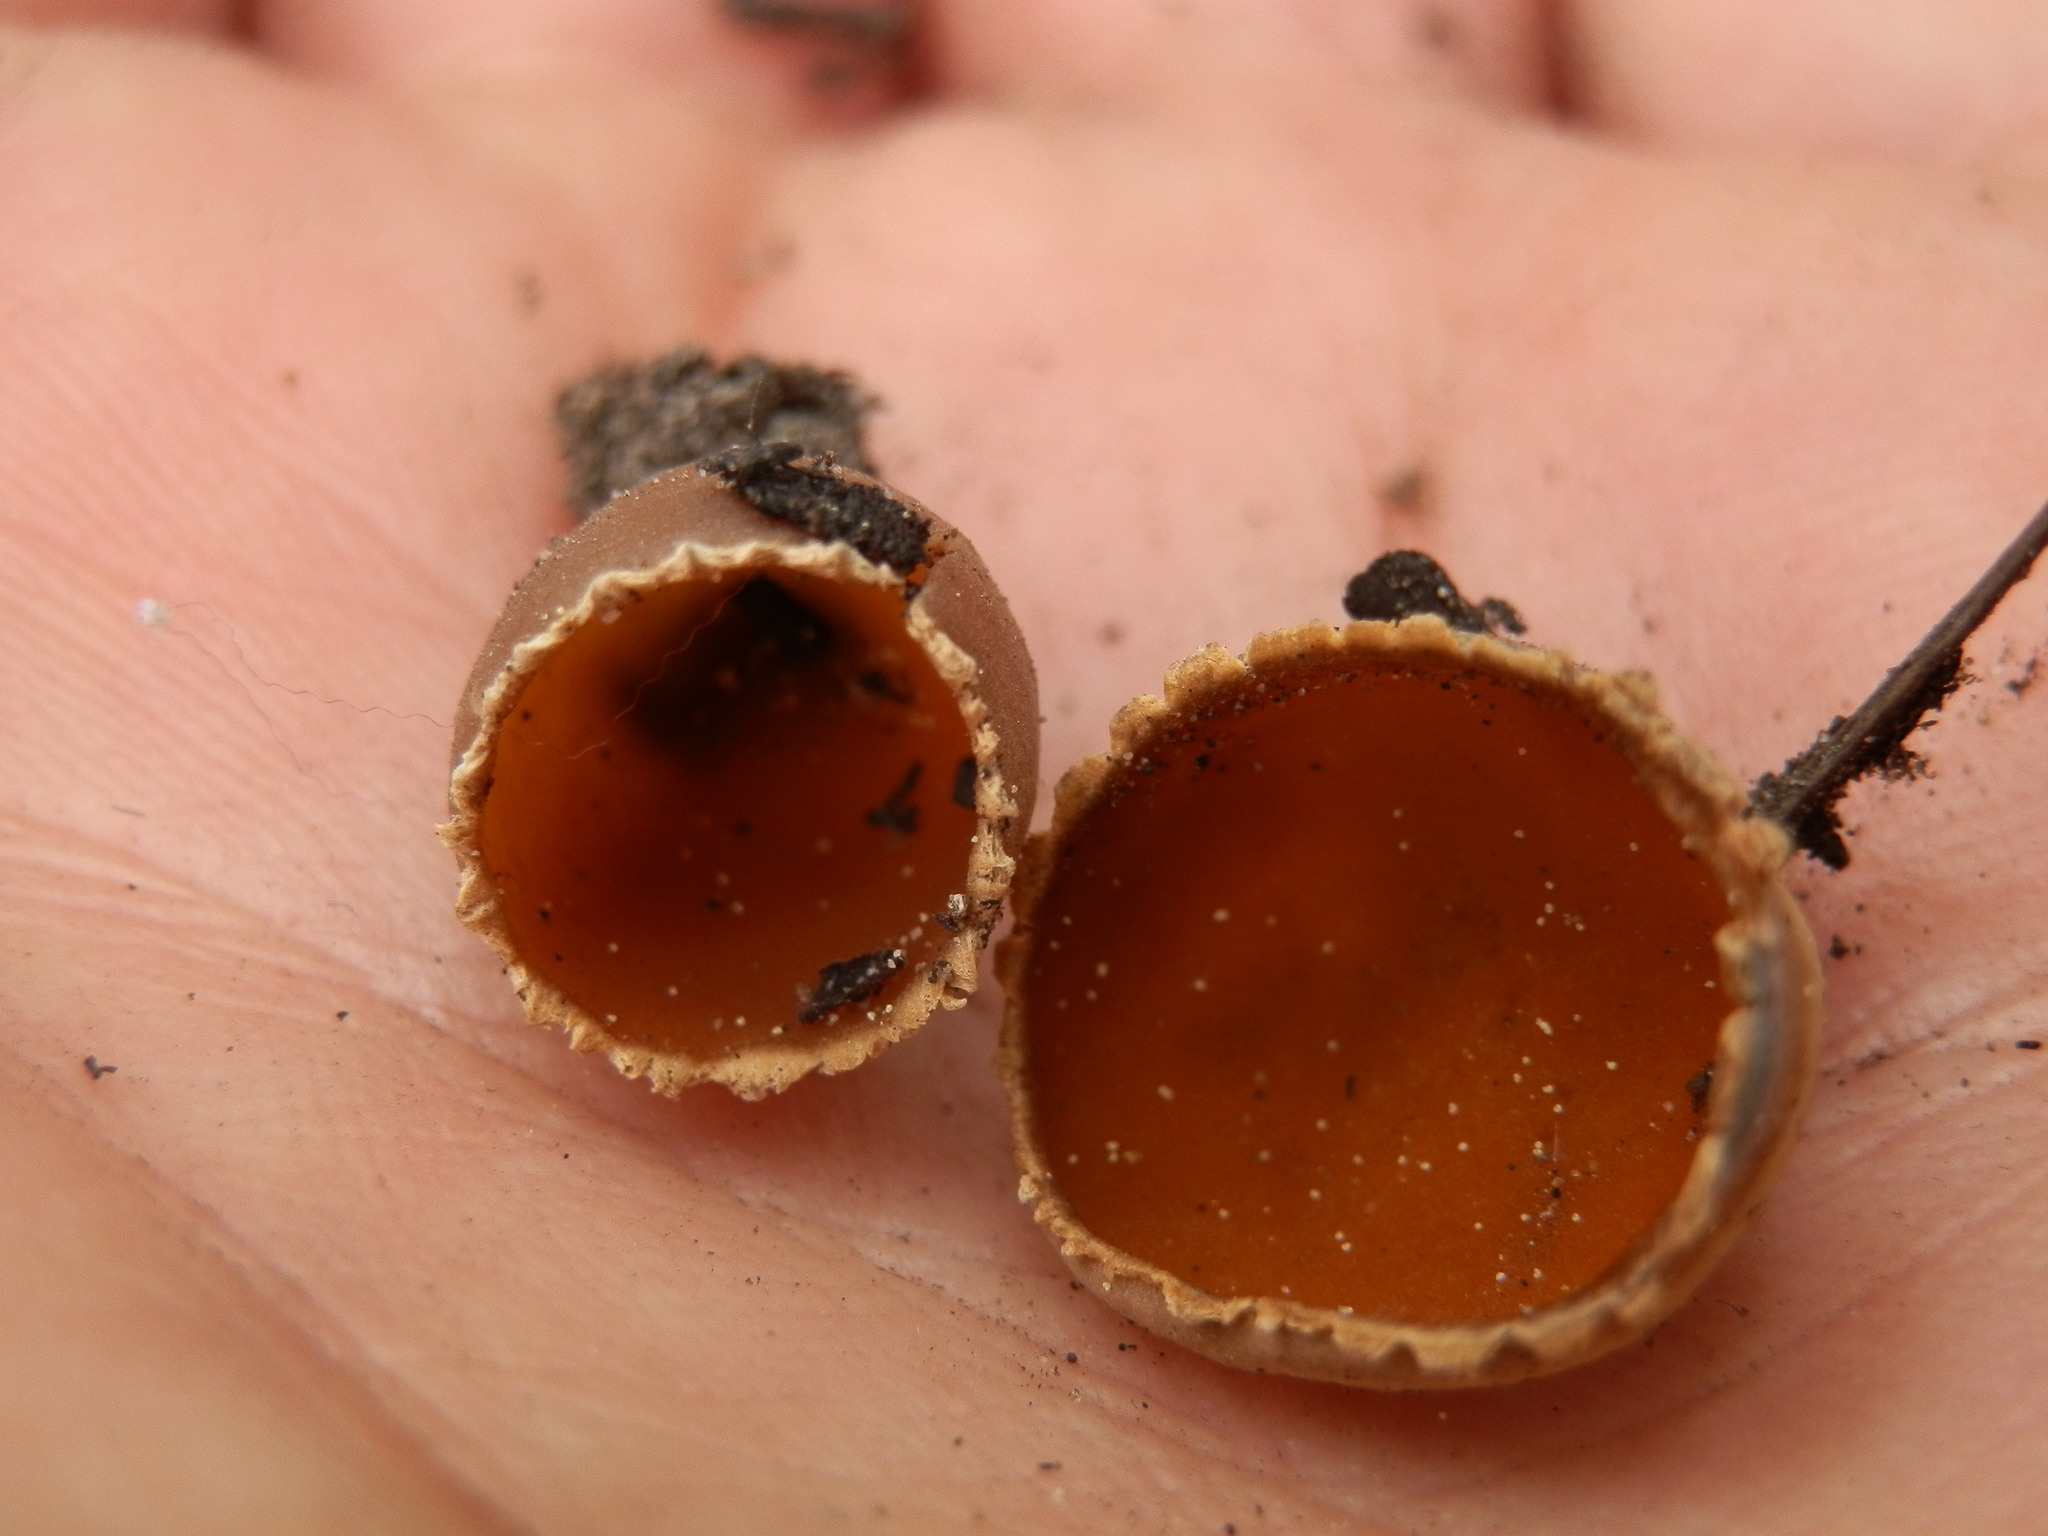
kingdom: Fungi
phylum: Ascomycota
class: Pezizomycetes
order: Pezizales
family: Pyronemataceae
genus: Geopyxis
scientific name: Geopyxis carbonaria
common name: Stalked bonfire cup
